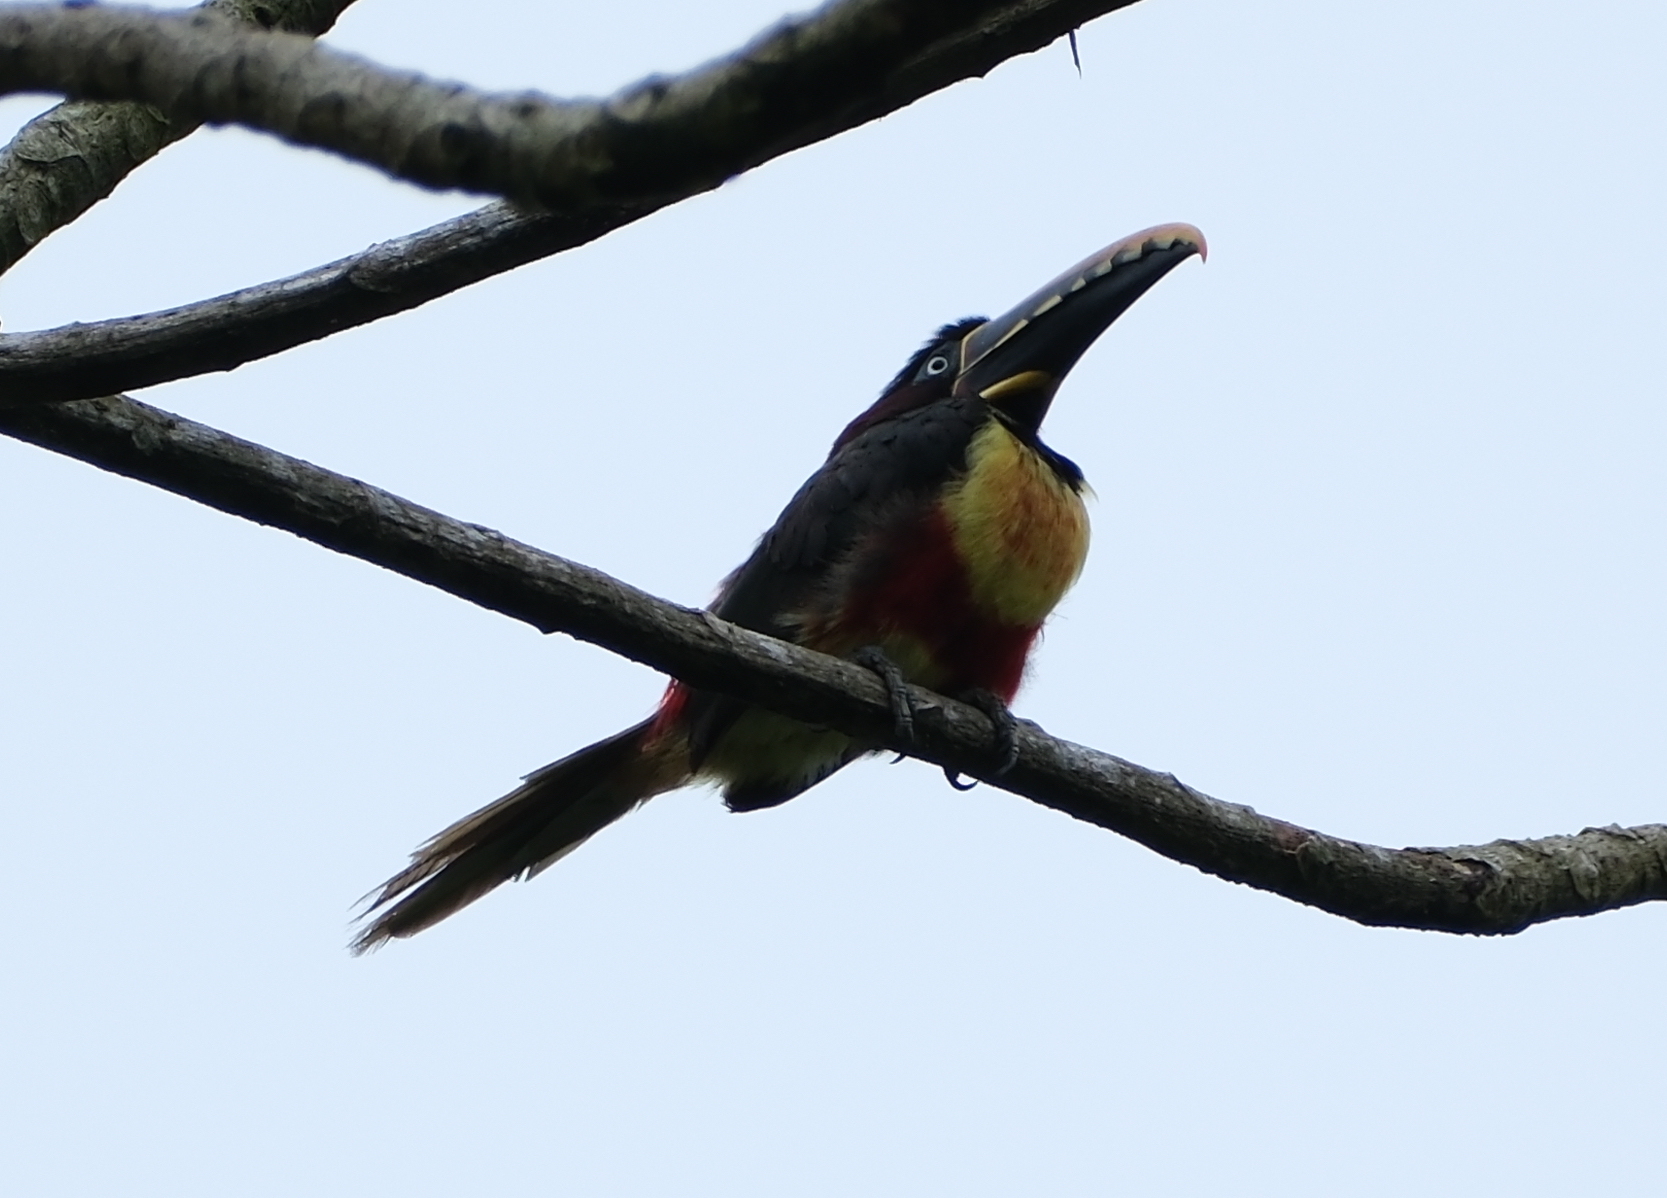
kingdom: Animalia
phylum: Chordata
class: Aves
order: Piciformes
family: Ramphastidae
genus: Pteroglossus
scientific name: Pteroglossus castanotis
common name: Chestnut-eared aracari
